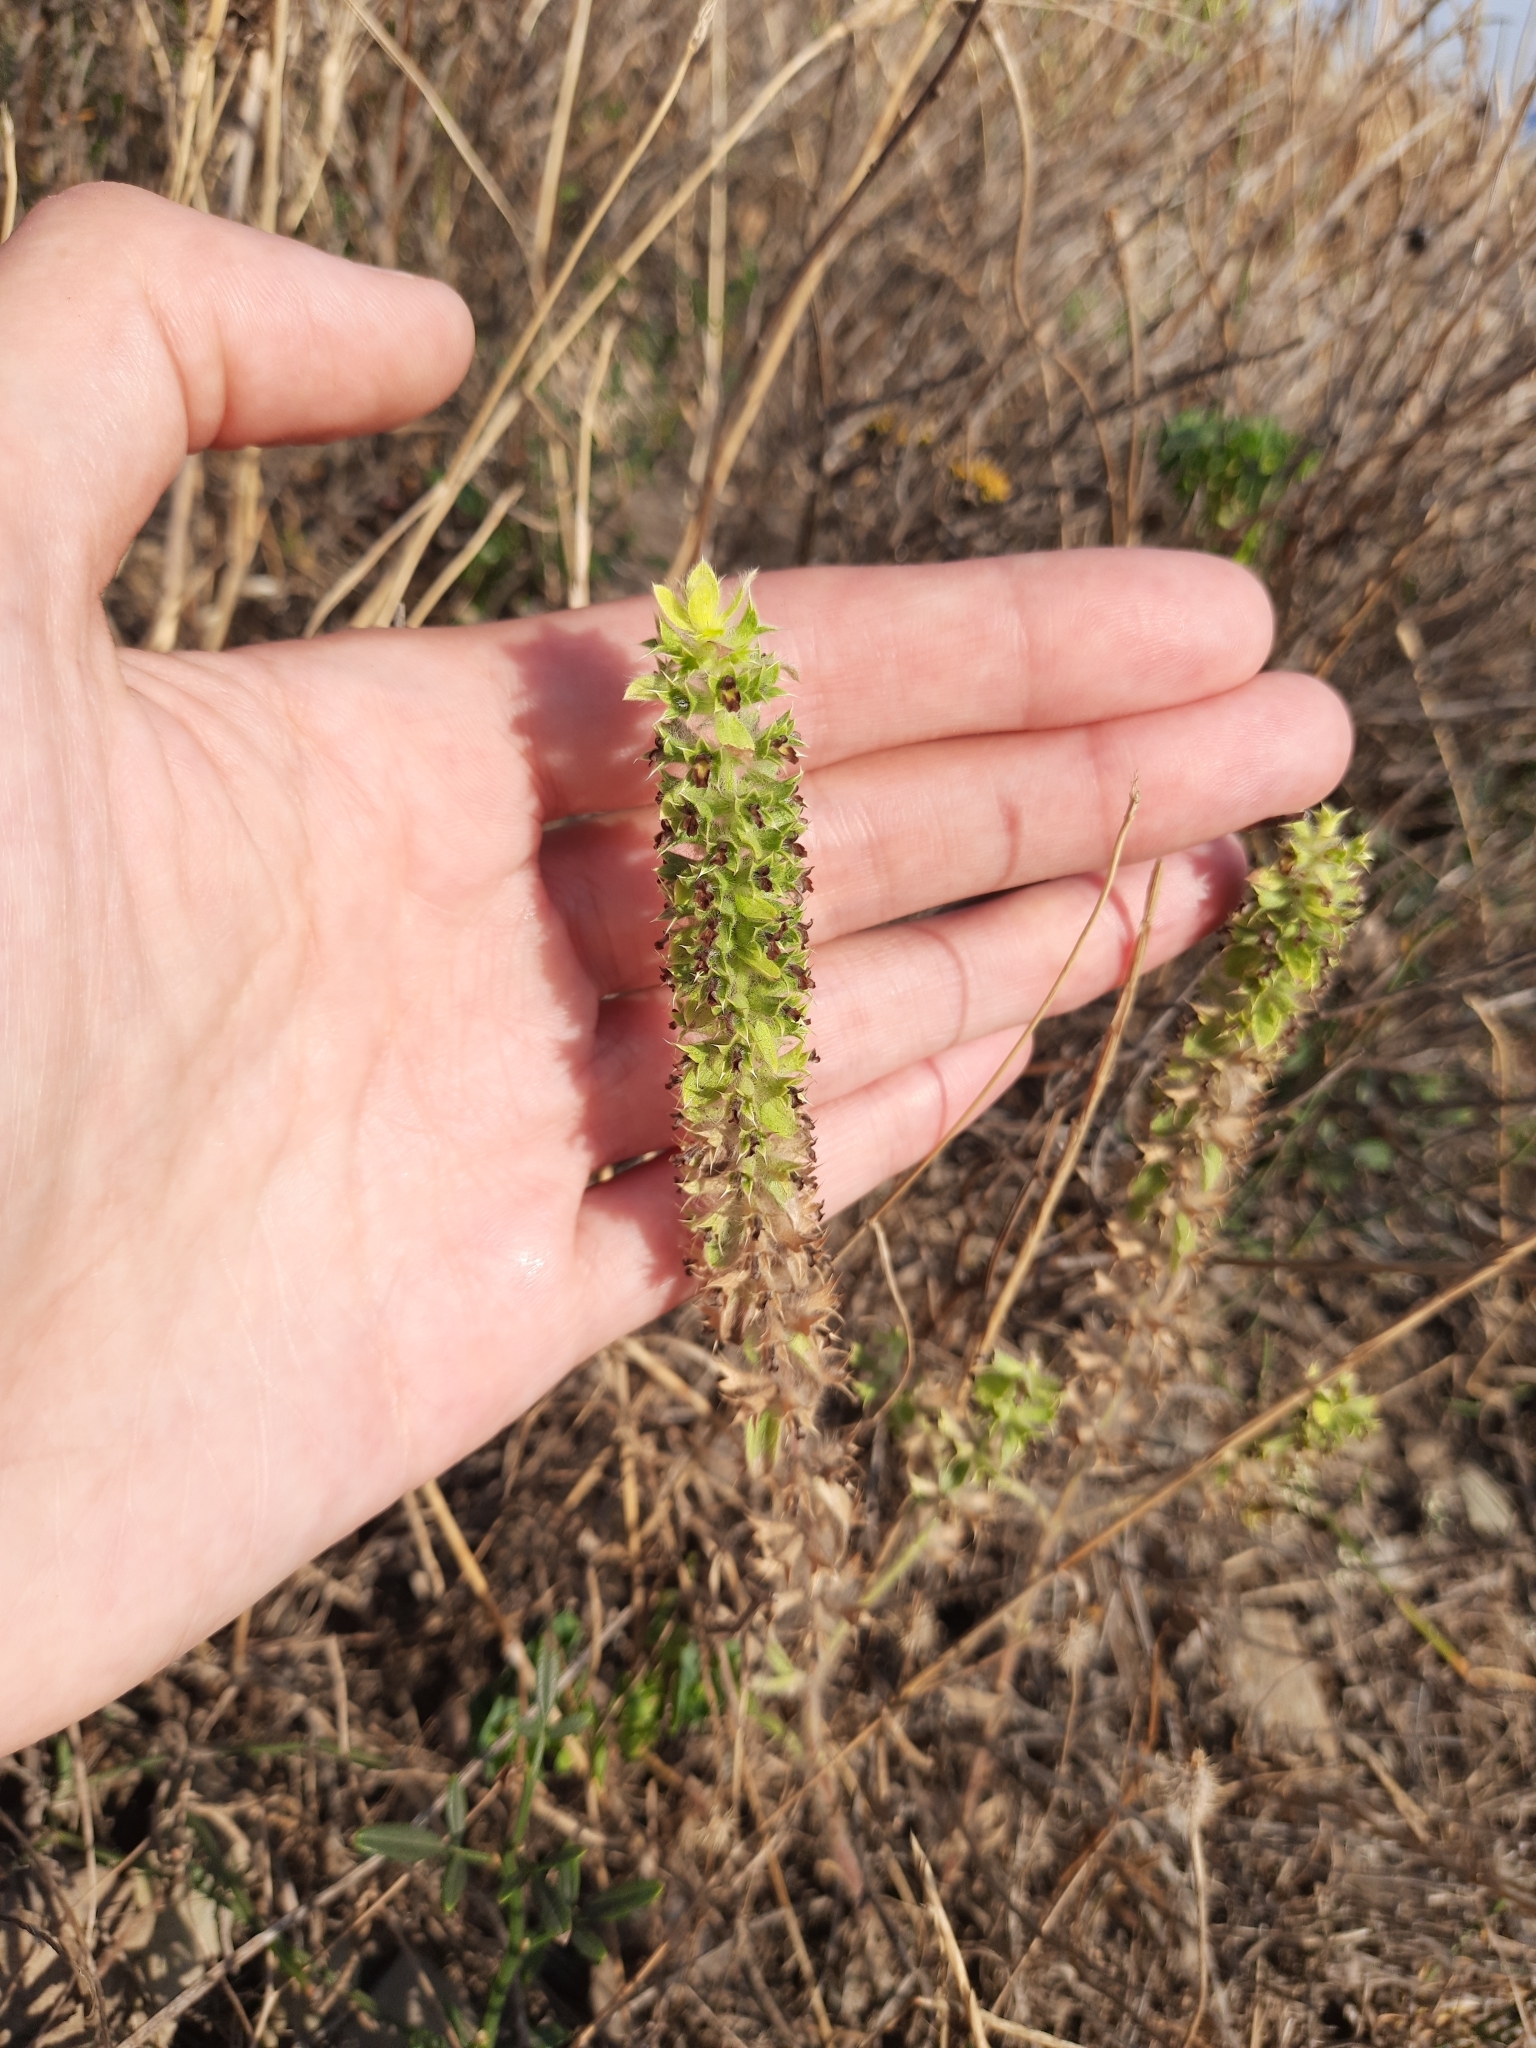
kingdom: Plantae
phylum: Tracheophyta
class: Magnoliopsida
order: Lamiales
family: Lamiaceae
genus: Sideritis
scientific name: Sideritis montana
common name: Mountain ironwort
